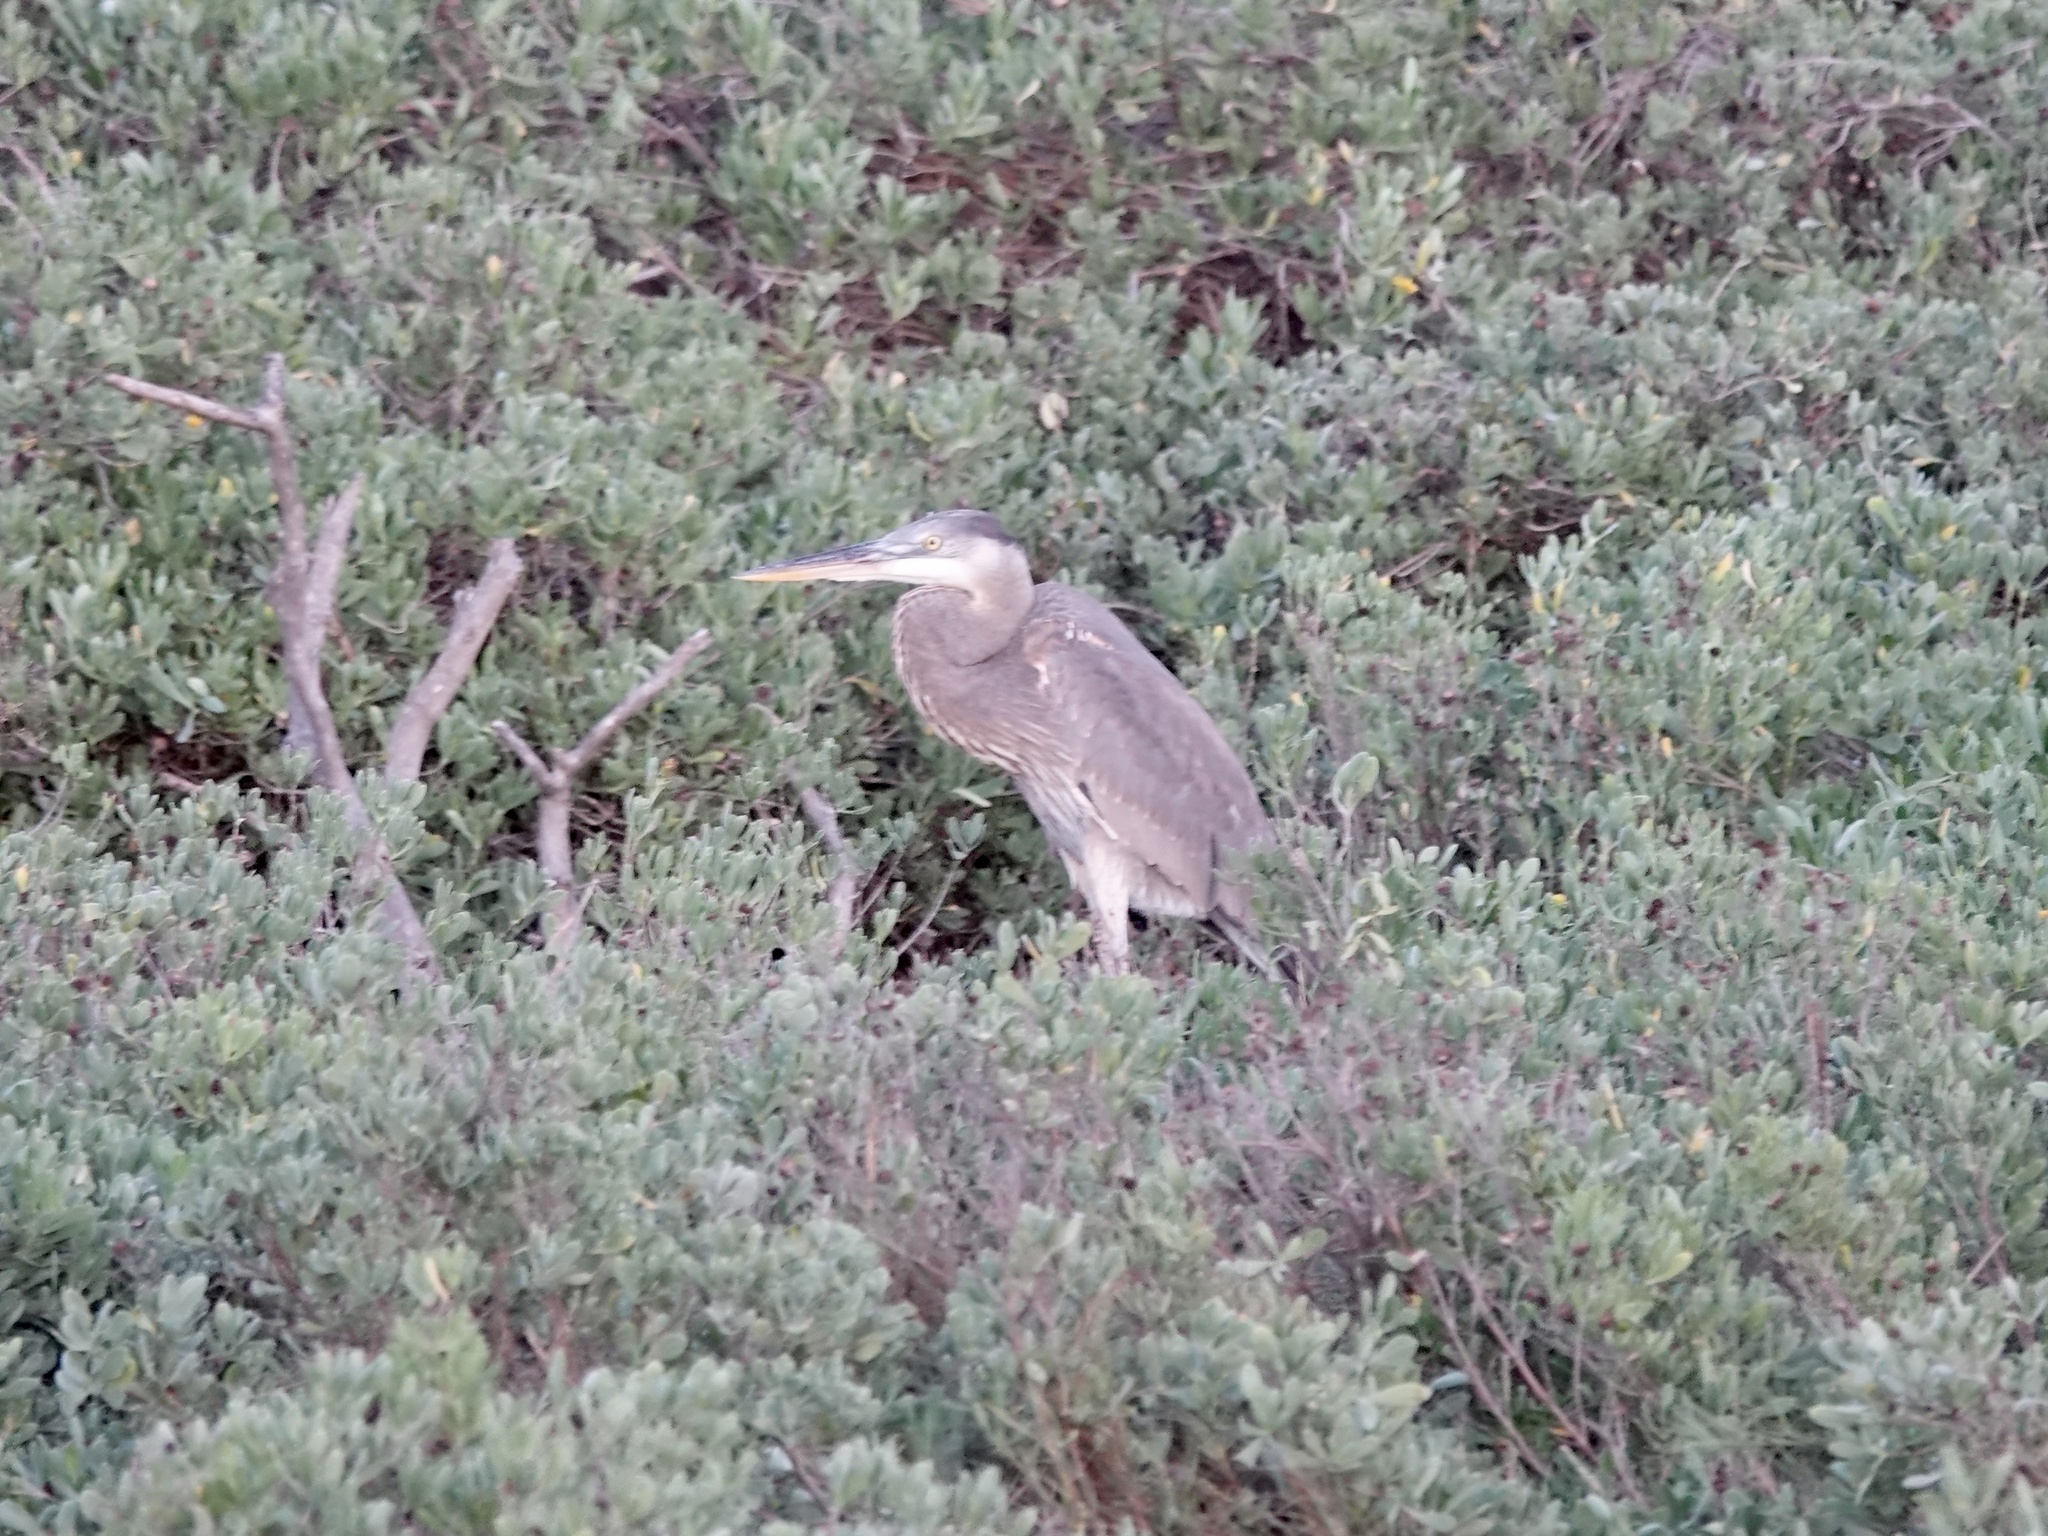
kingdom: Animalia
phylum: Chordata
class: Aves
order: Pelecaniformes
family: Ardeidae
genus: Ardea
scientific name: Ardea herodias
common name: Great blue heron
